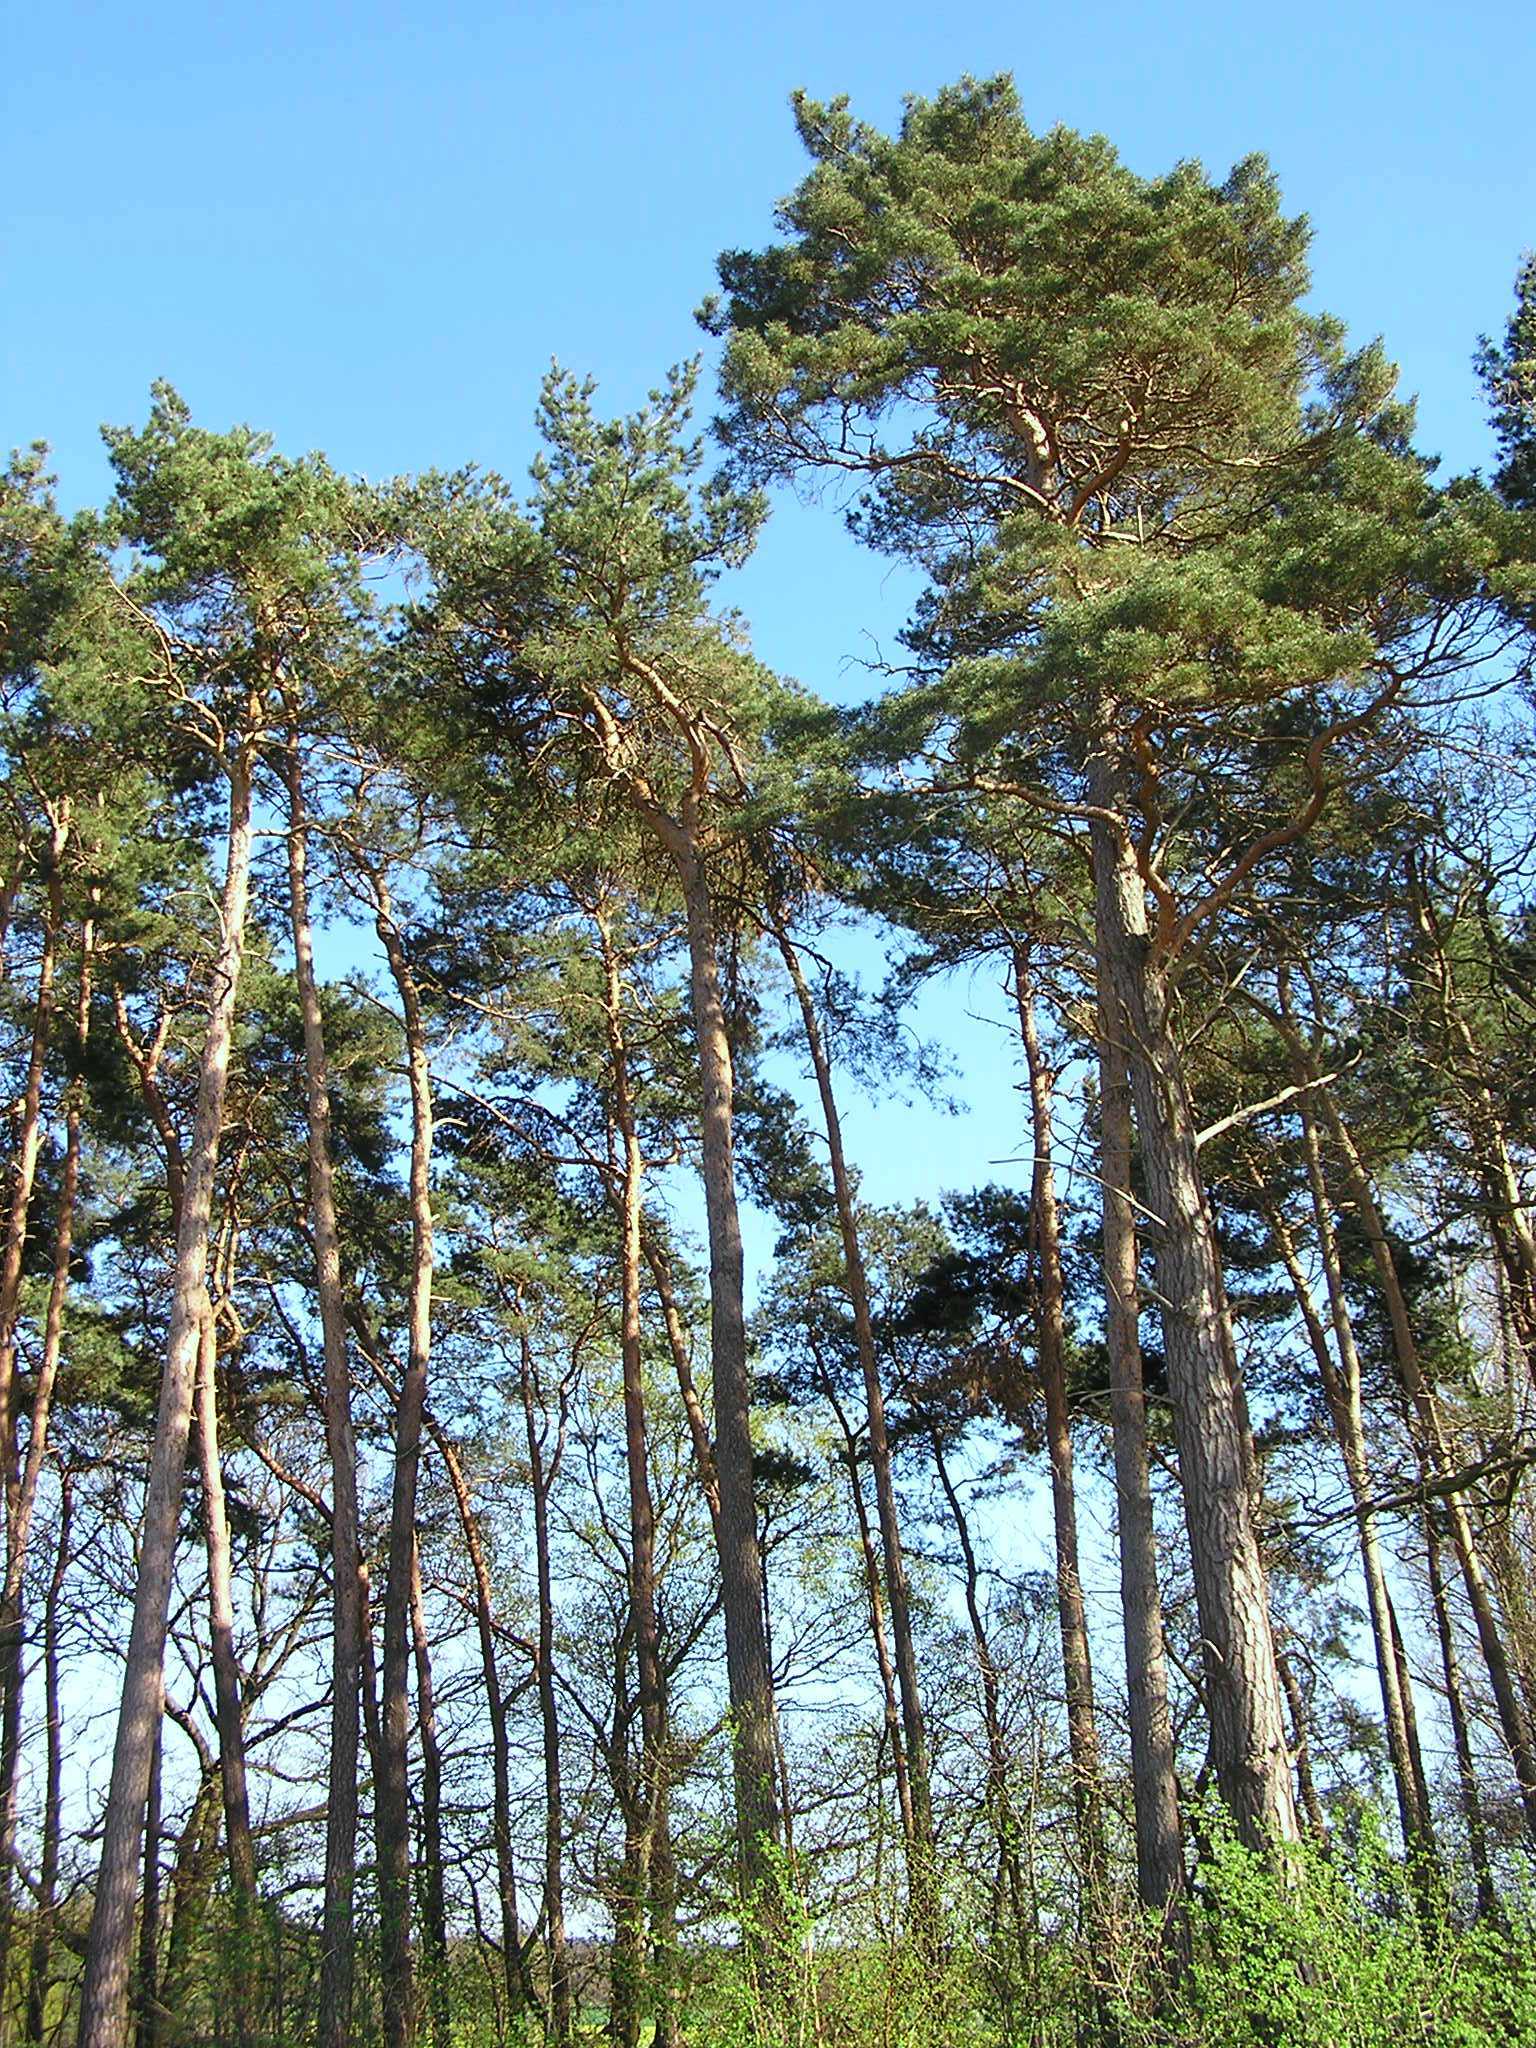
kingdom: Plantae
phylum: Tracheophyta
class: Pinopsida
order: Pinales
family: Pinaceae
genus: Pinus
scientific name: Pinus sylvestris
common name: Scots pine
